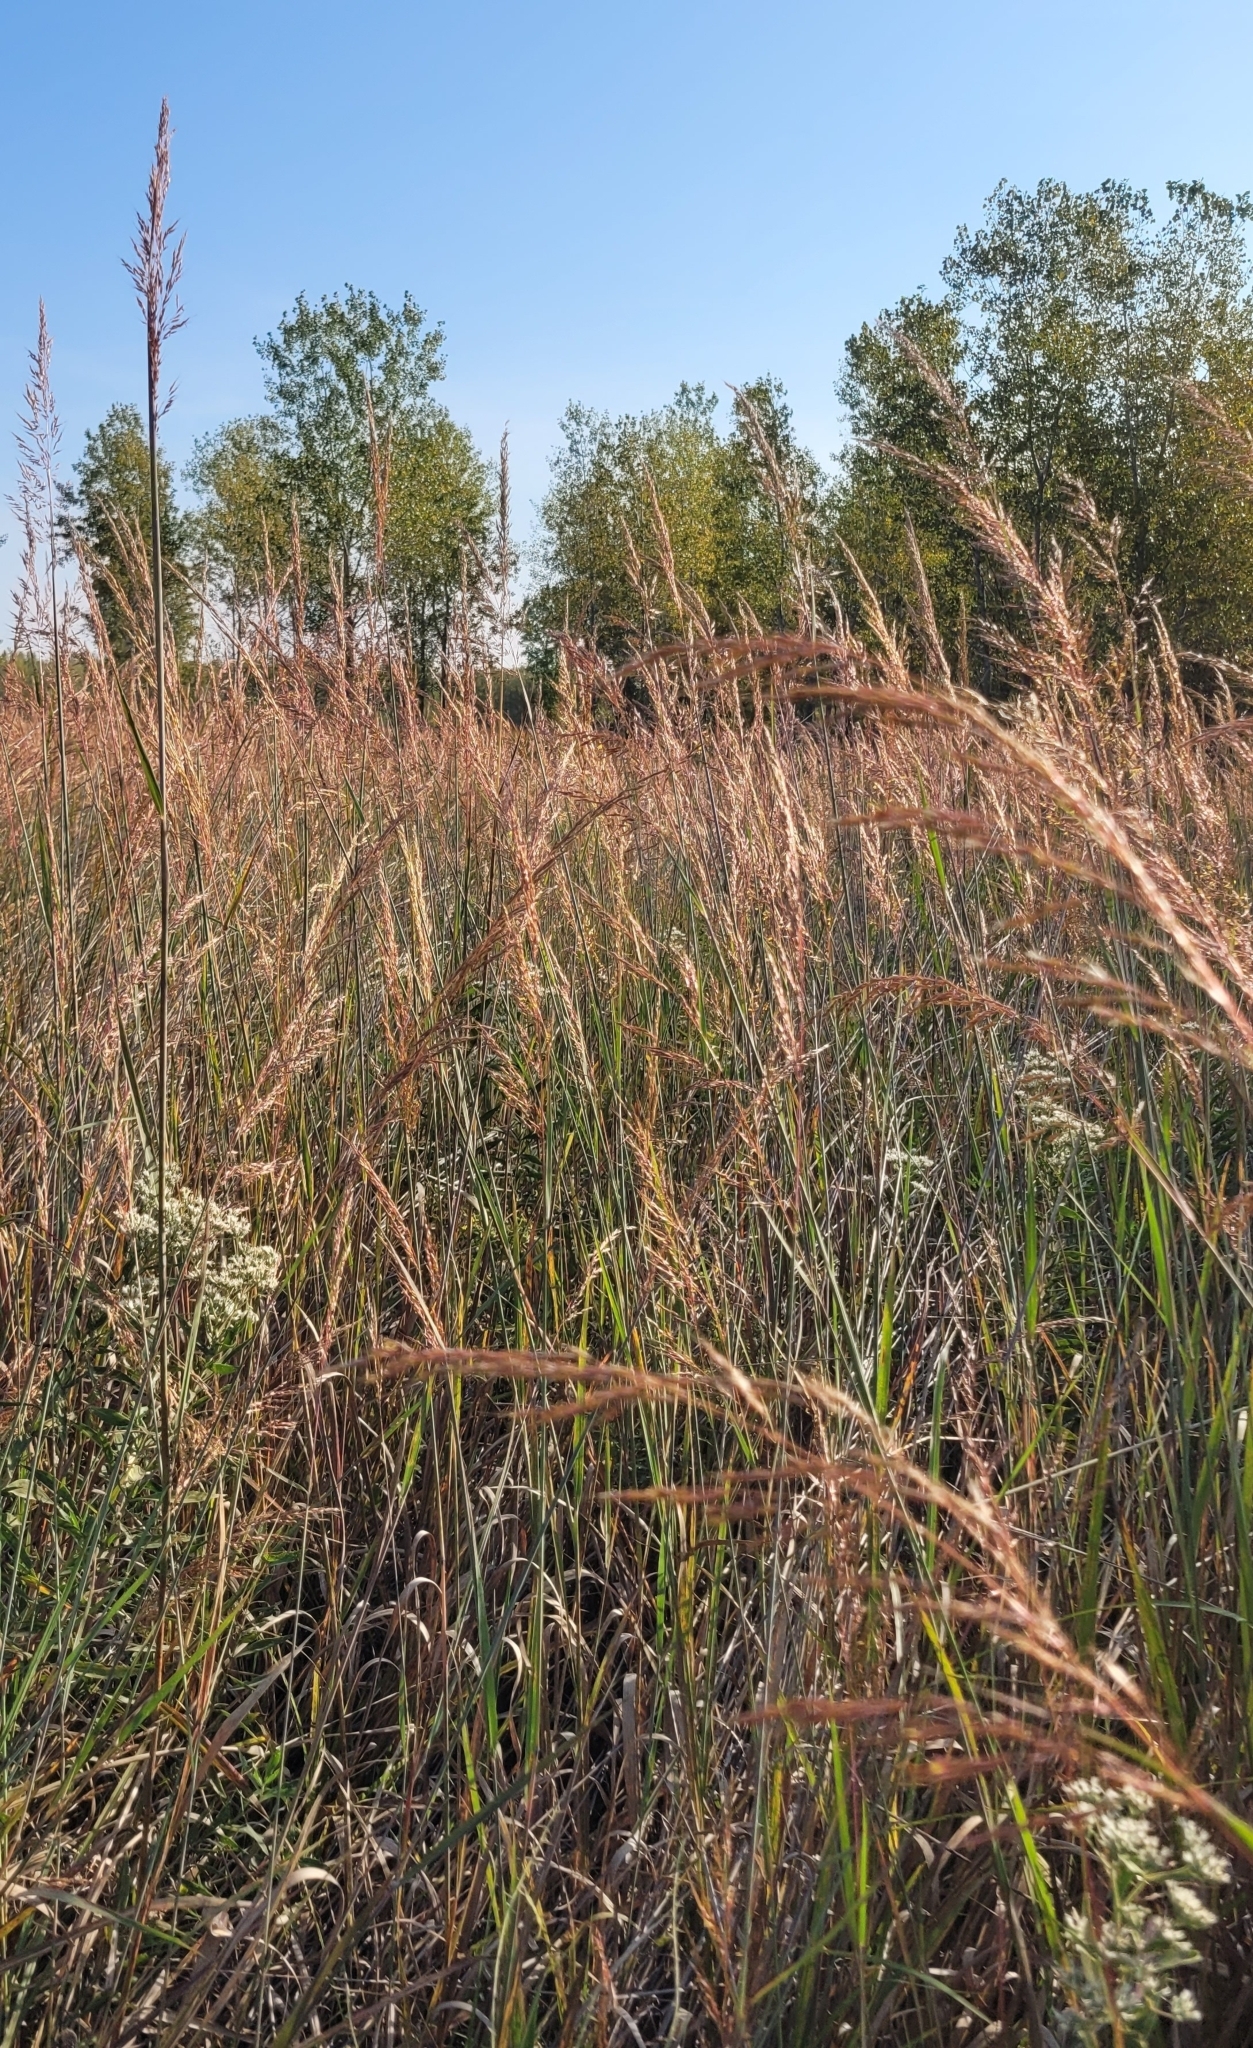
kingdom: Plantae
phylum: Tracheophyta
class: Liliopsida
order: Poales
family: Poaceae
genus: Sorghastrum
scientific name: Sorghastrum nutans
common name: Indian grass
